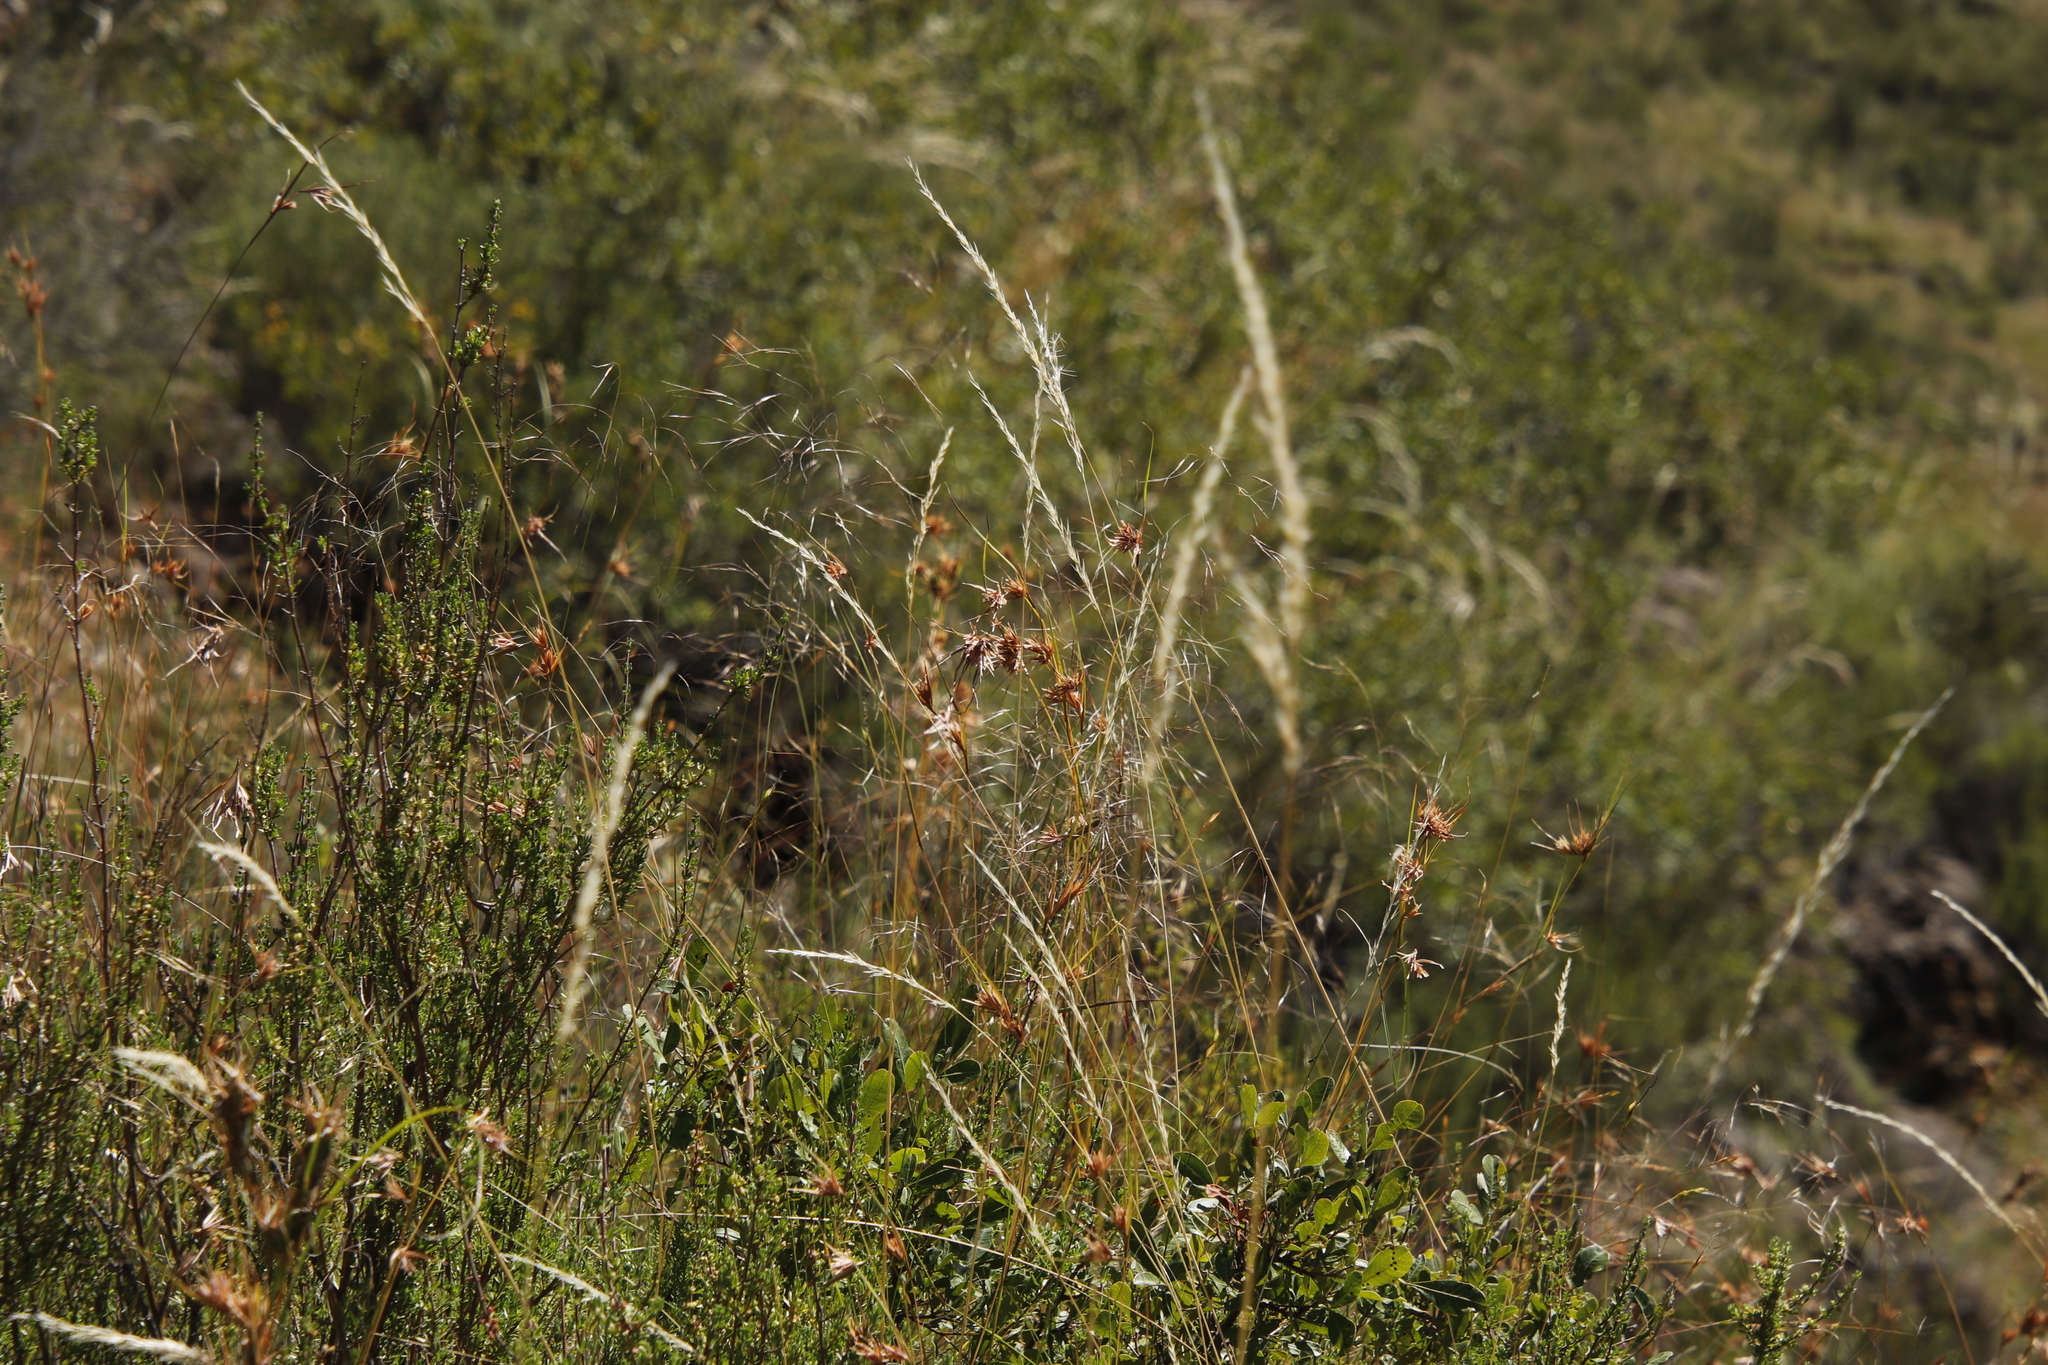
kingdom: Plantae
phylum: Tracheophyta
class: Liliopsida
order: Poales
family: Poaceae
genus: Themeda
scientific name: Themeda triandra
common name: Kangaroo grass
